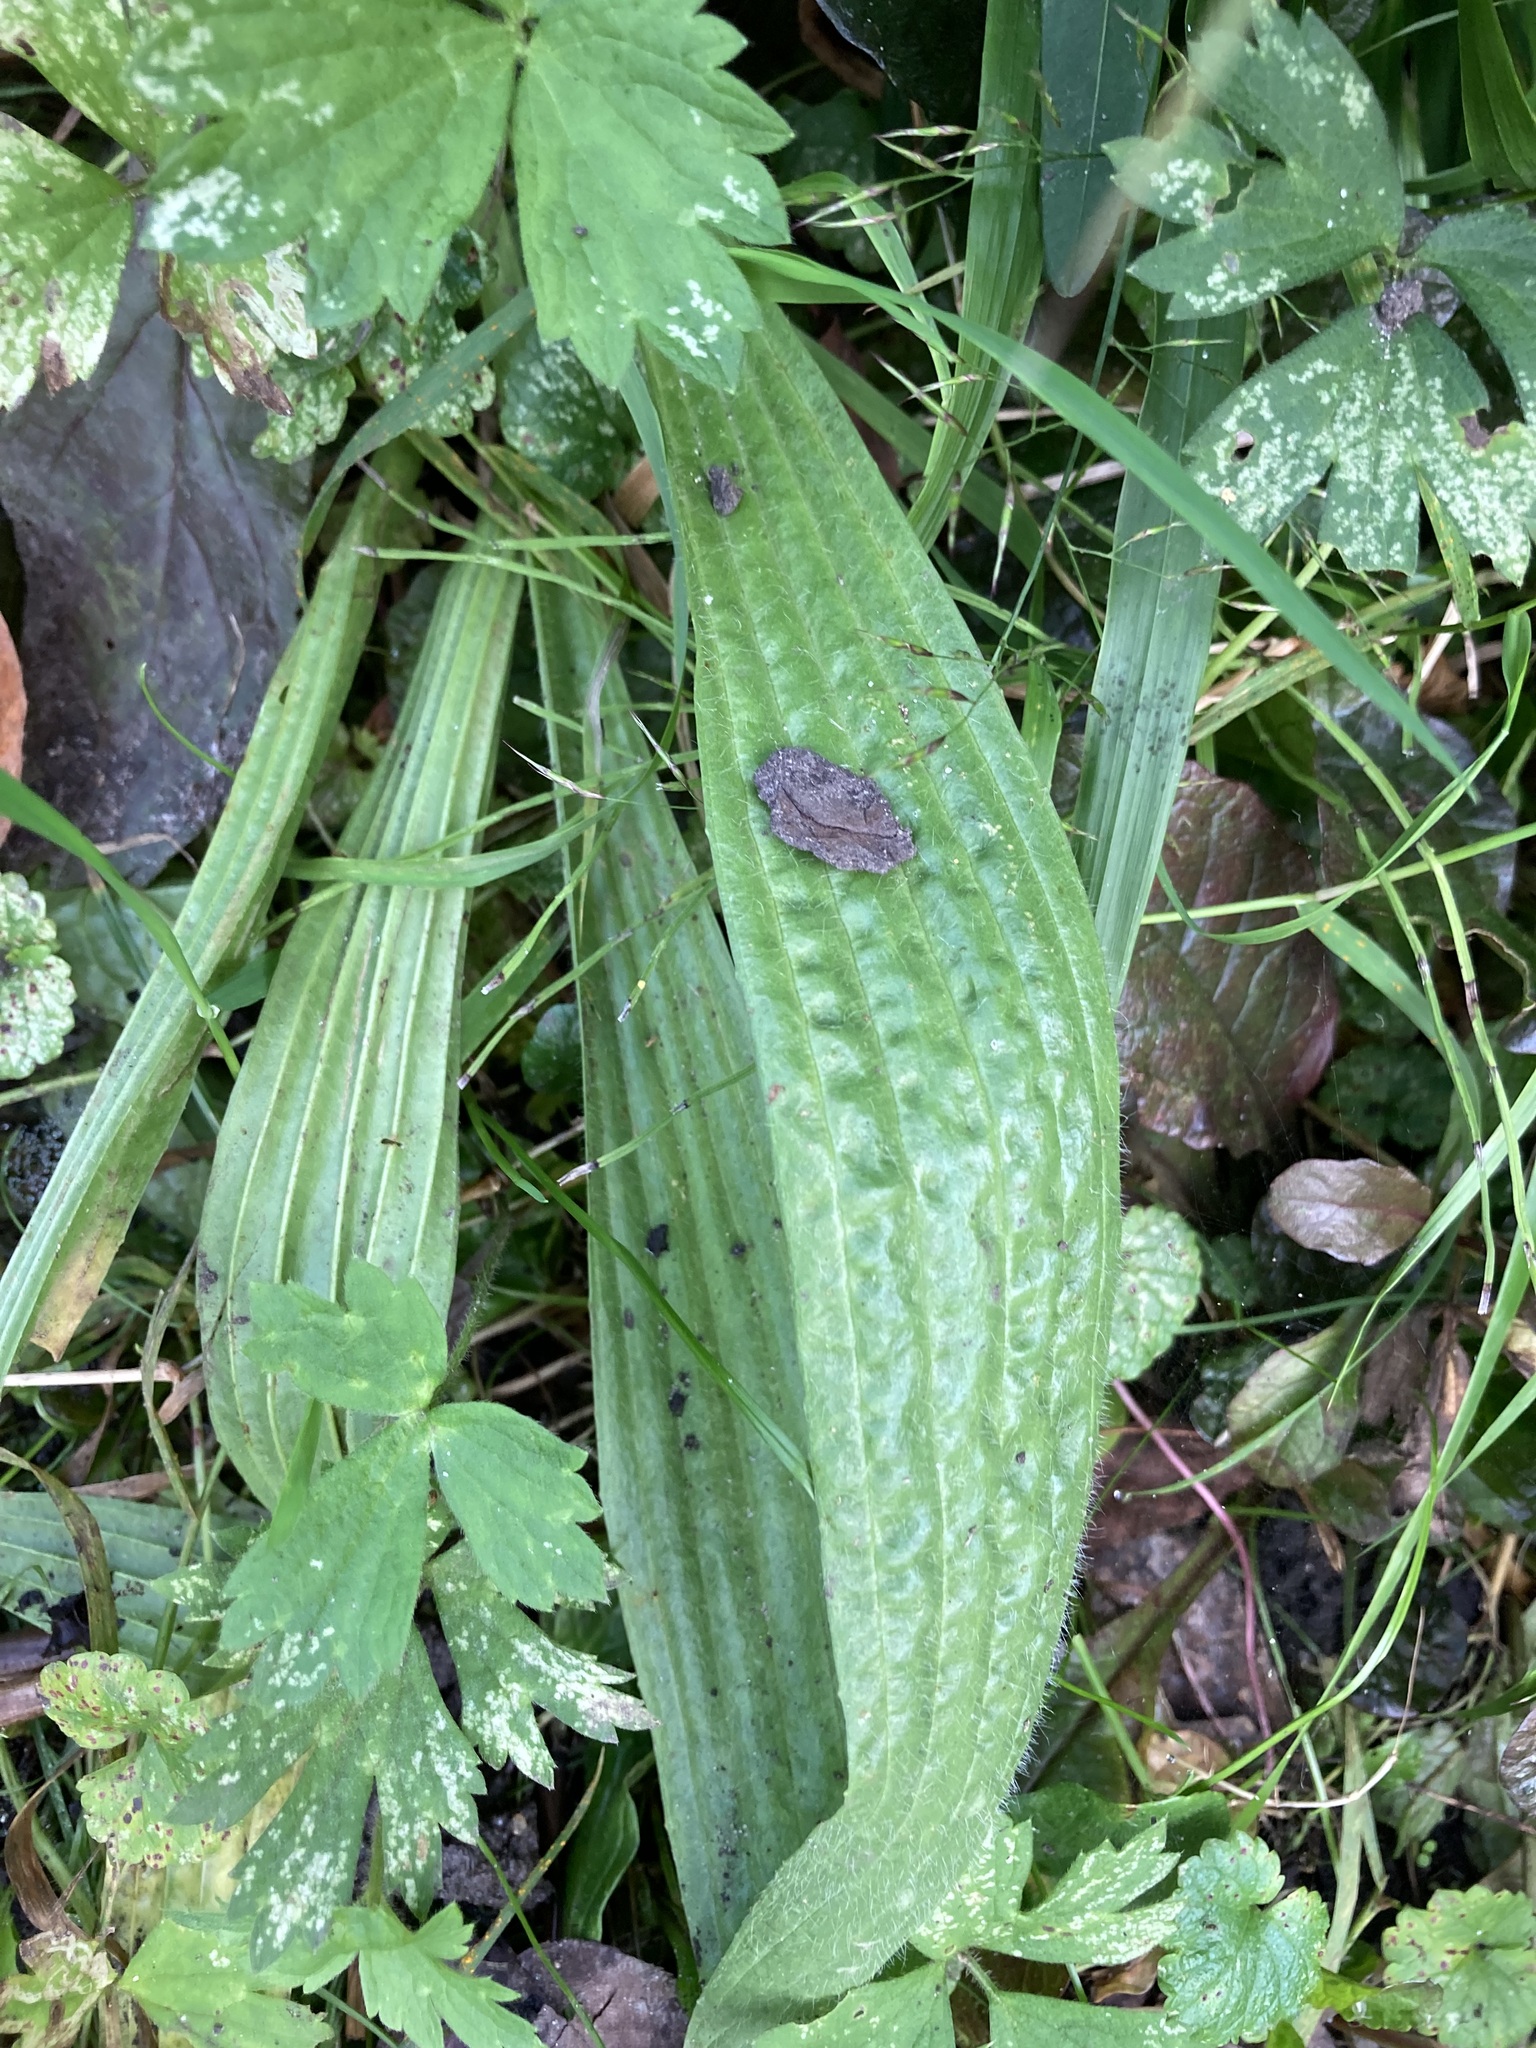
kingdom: Plantae
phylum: Tracheophyta
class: Magnoliopsida
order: Lamiales
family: Plantaginaceae
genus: Plantago
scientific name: Plantago lanceolata
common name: Ribwort plantain
